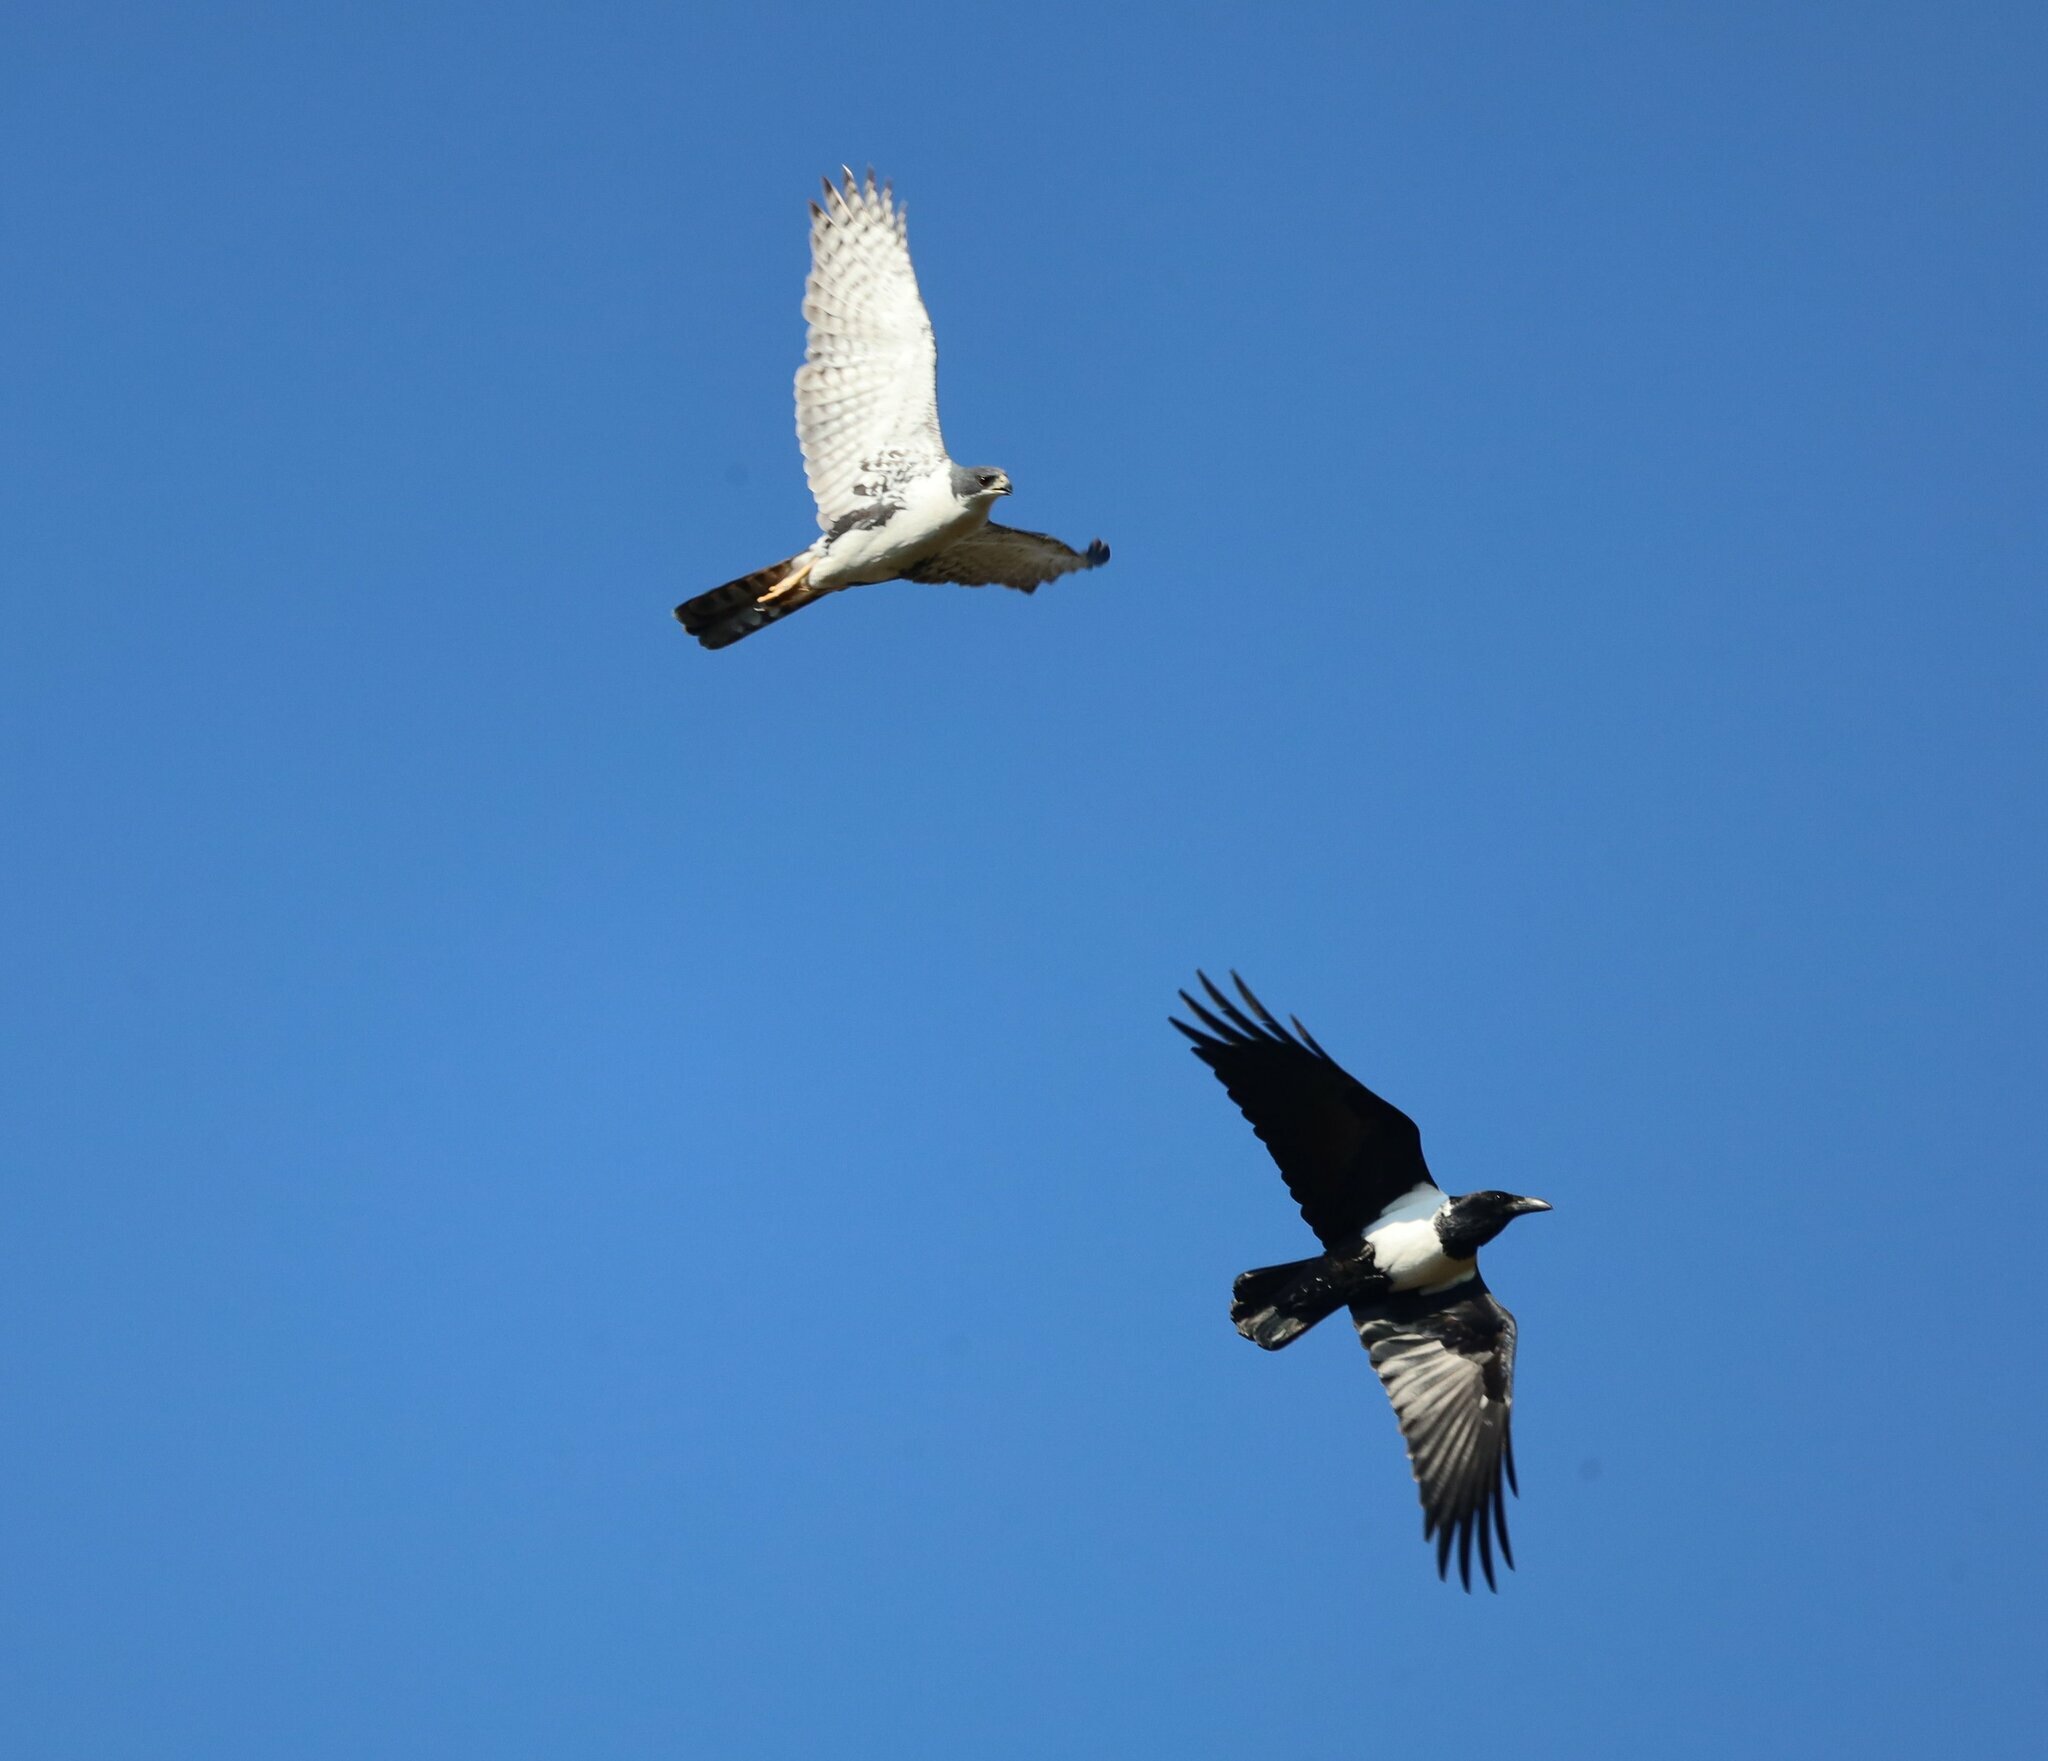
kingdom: Animalia
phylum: Chordata
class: Aves
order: Accipitriformes
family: Accipitridae
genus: Accipiter
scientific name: Accipiter melanoleucus
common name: Black sparrowhawk
